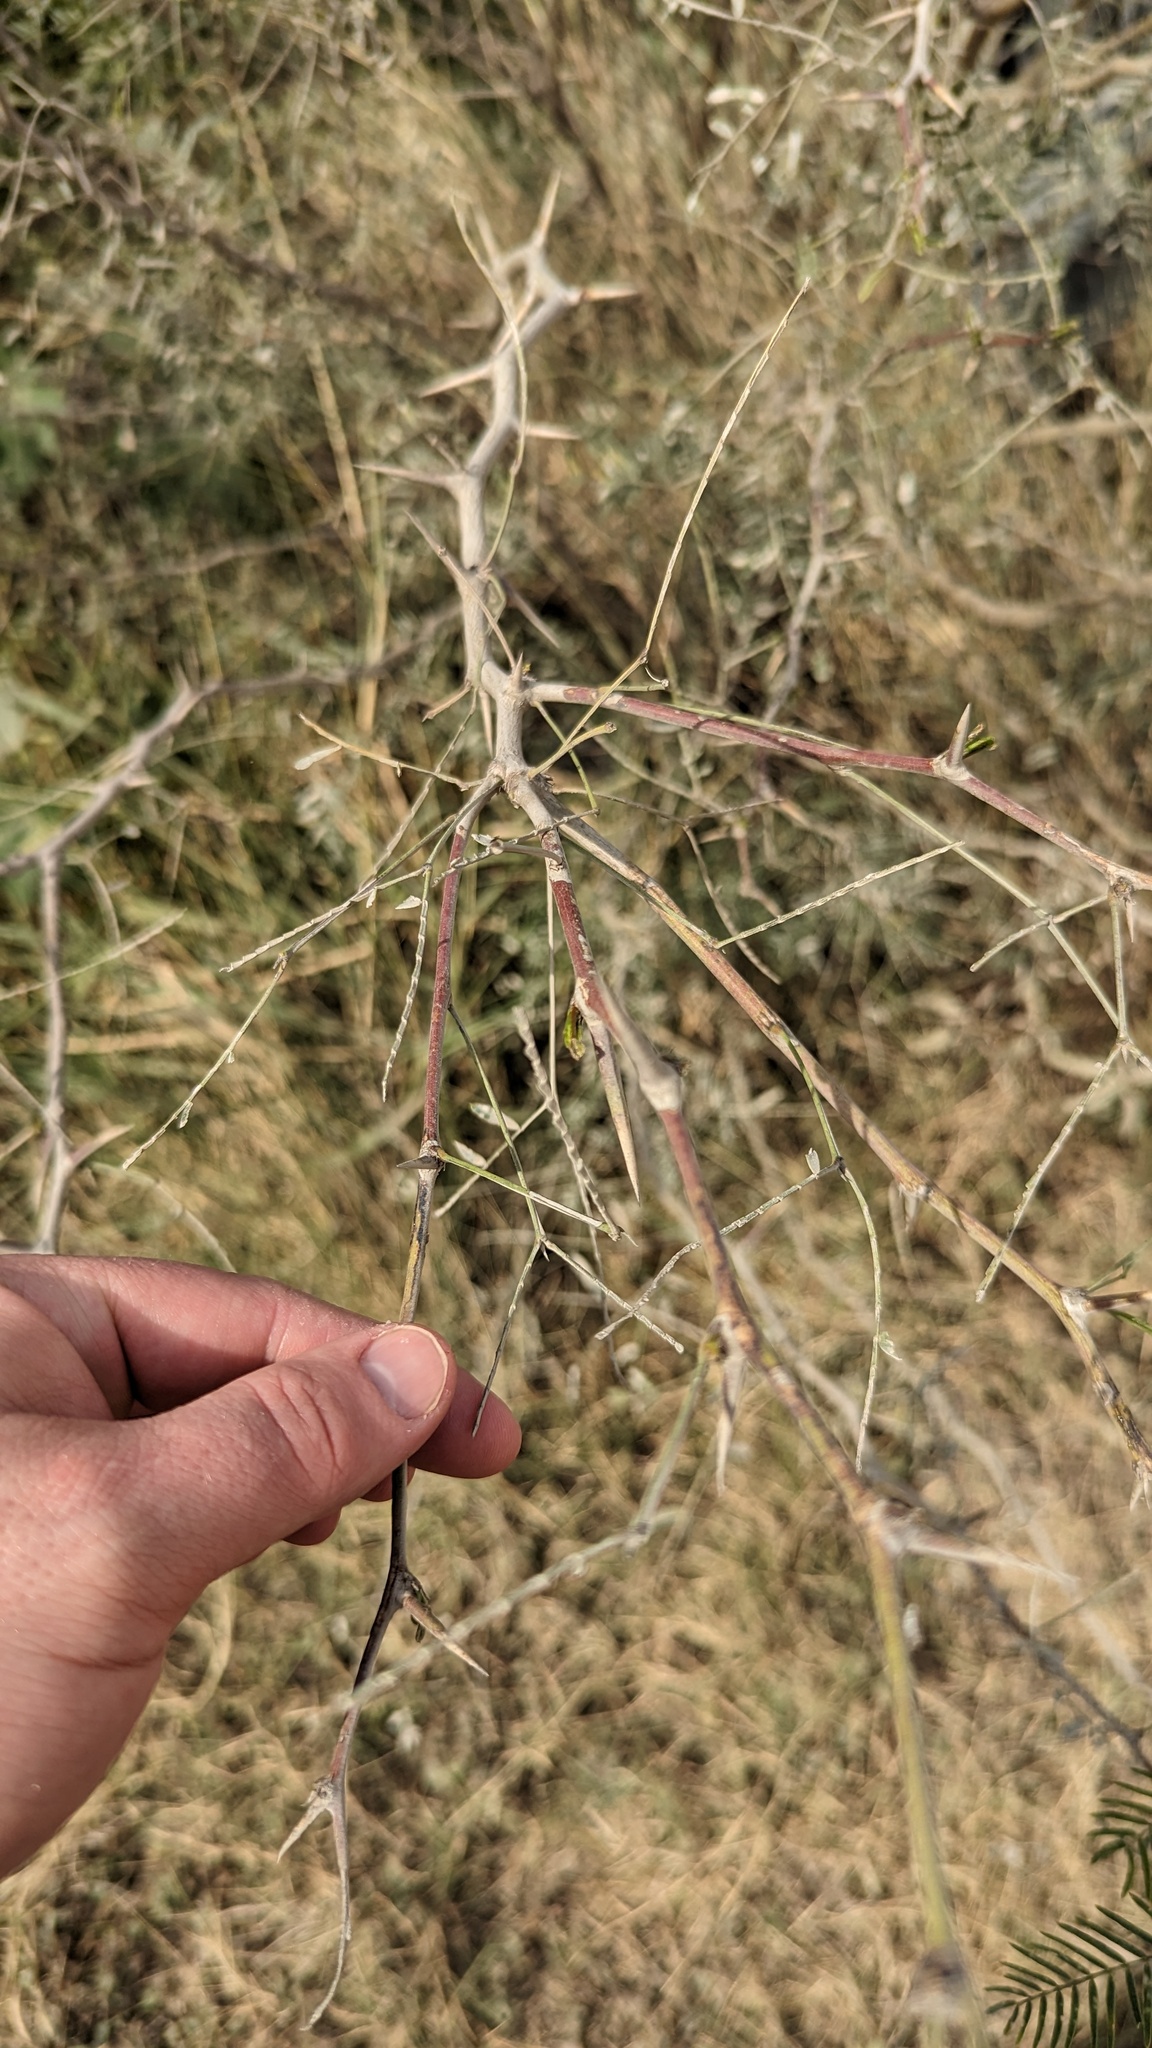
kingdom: Plantae
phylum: Tracheophyta
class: Magnoliopsida
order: Fabales
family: Fabaceae
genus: Prosopis
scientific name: Prosopis glandulosa
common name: Honey mesquite
